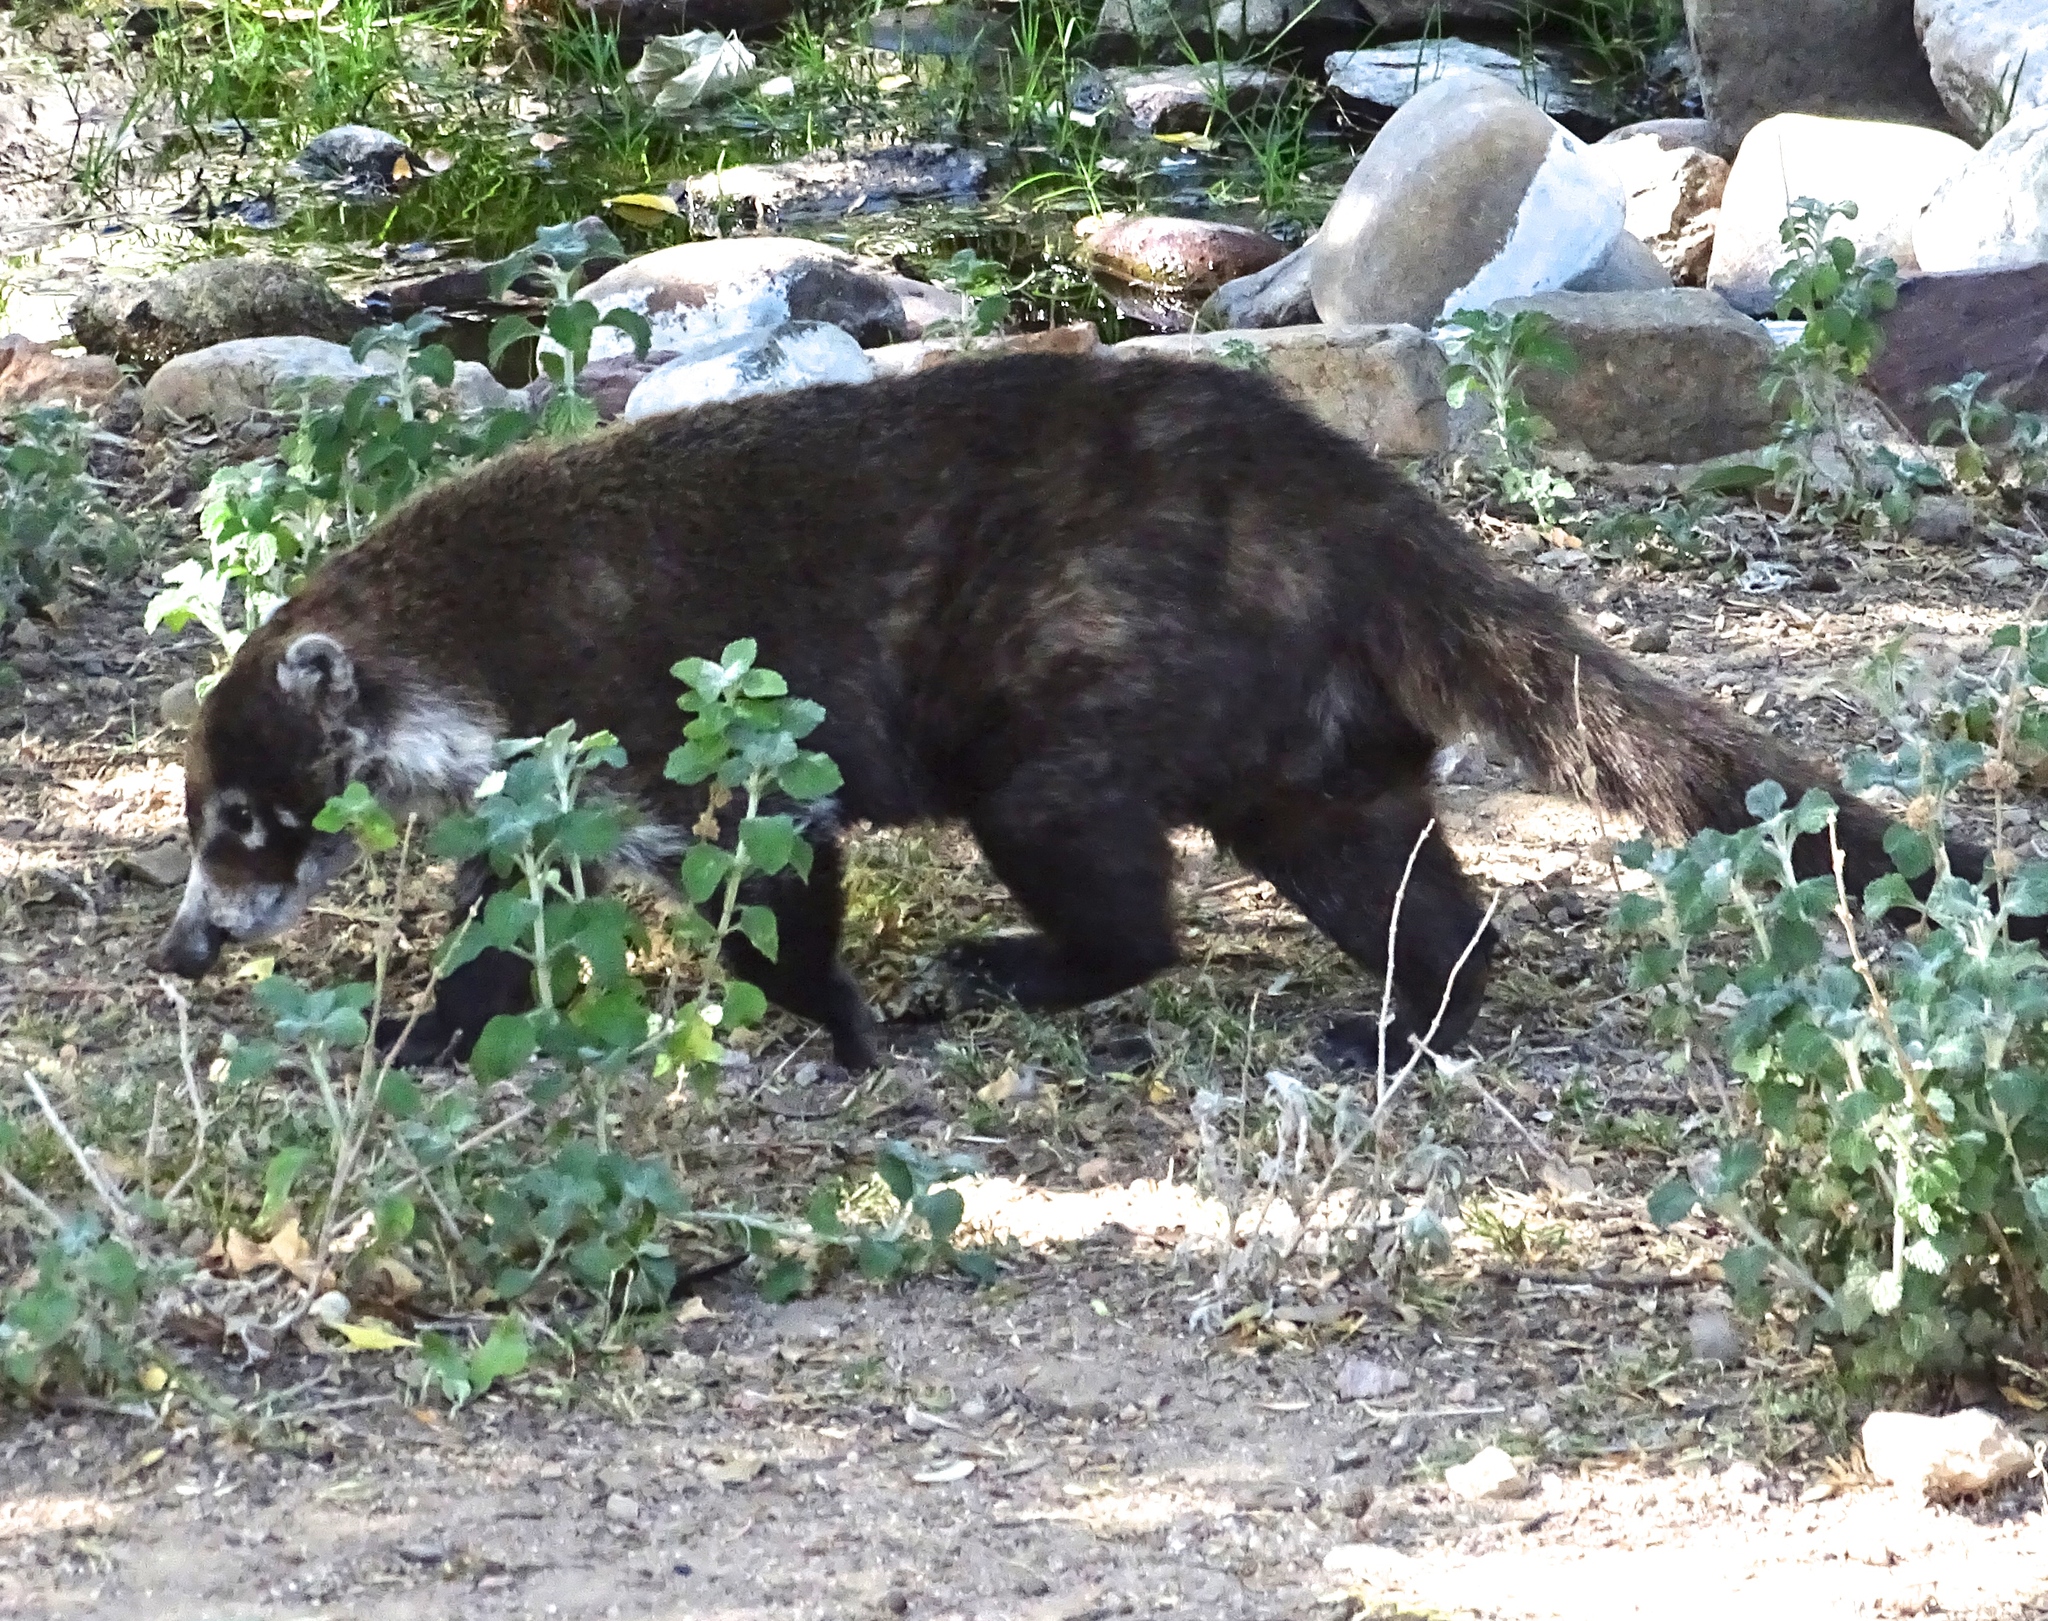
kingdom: Animalia
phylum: Chordata
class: Mammalia
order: Carnivora
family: Procyonidae
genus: Nasua
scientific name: Nasua narica
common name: White-nosed coati
